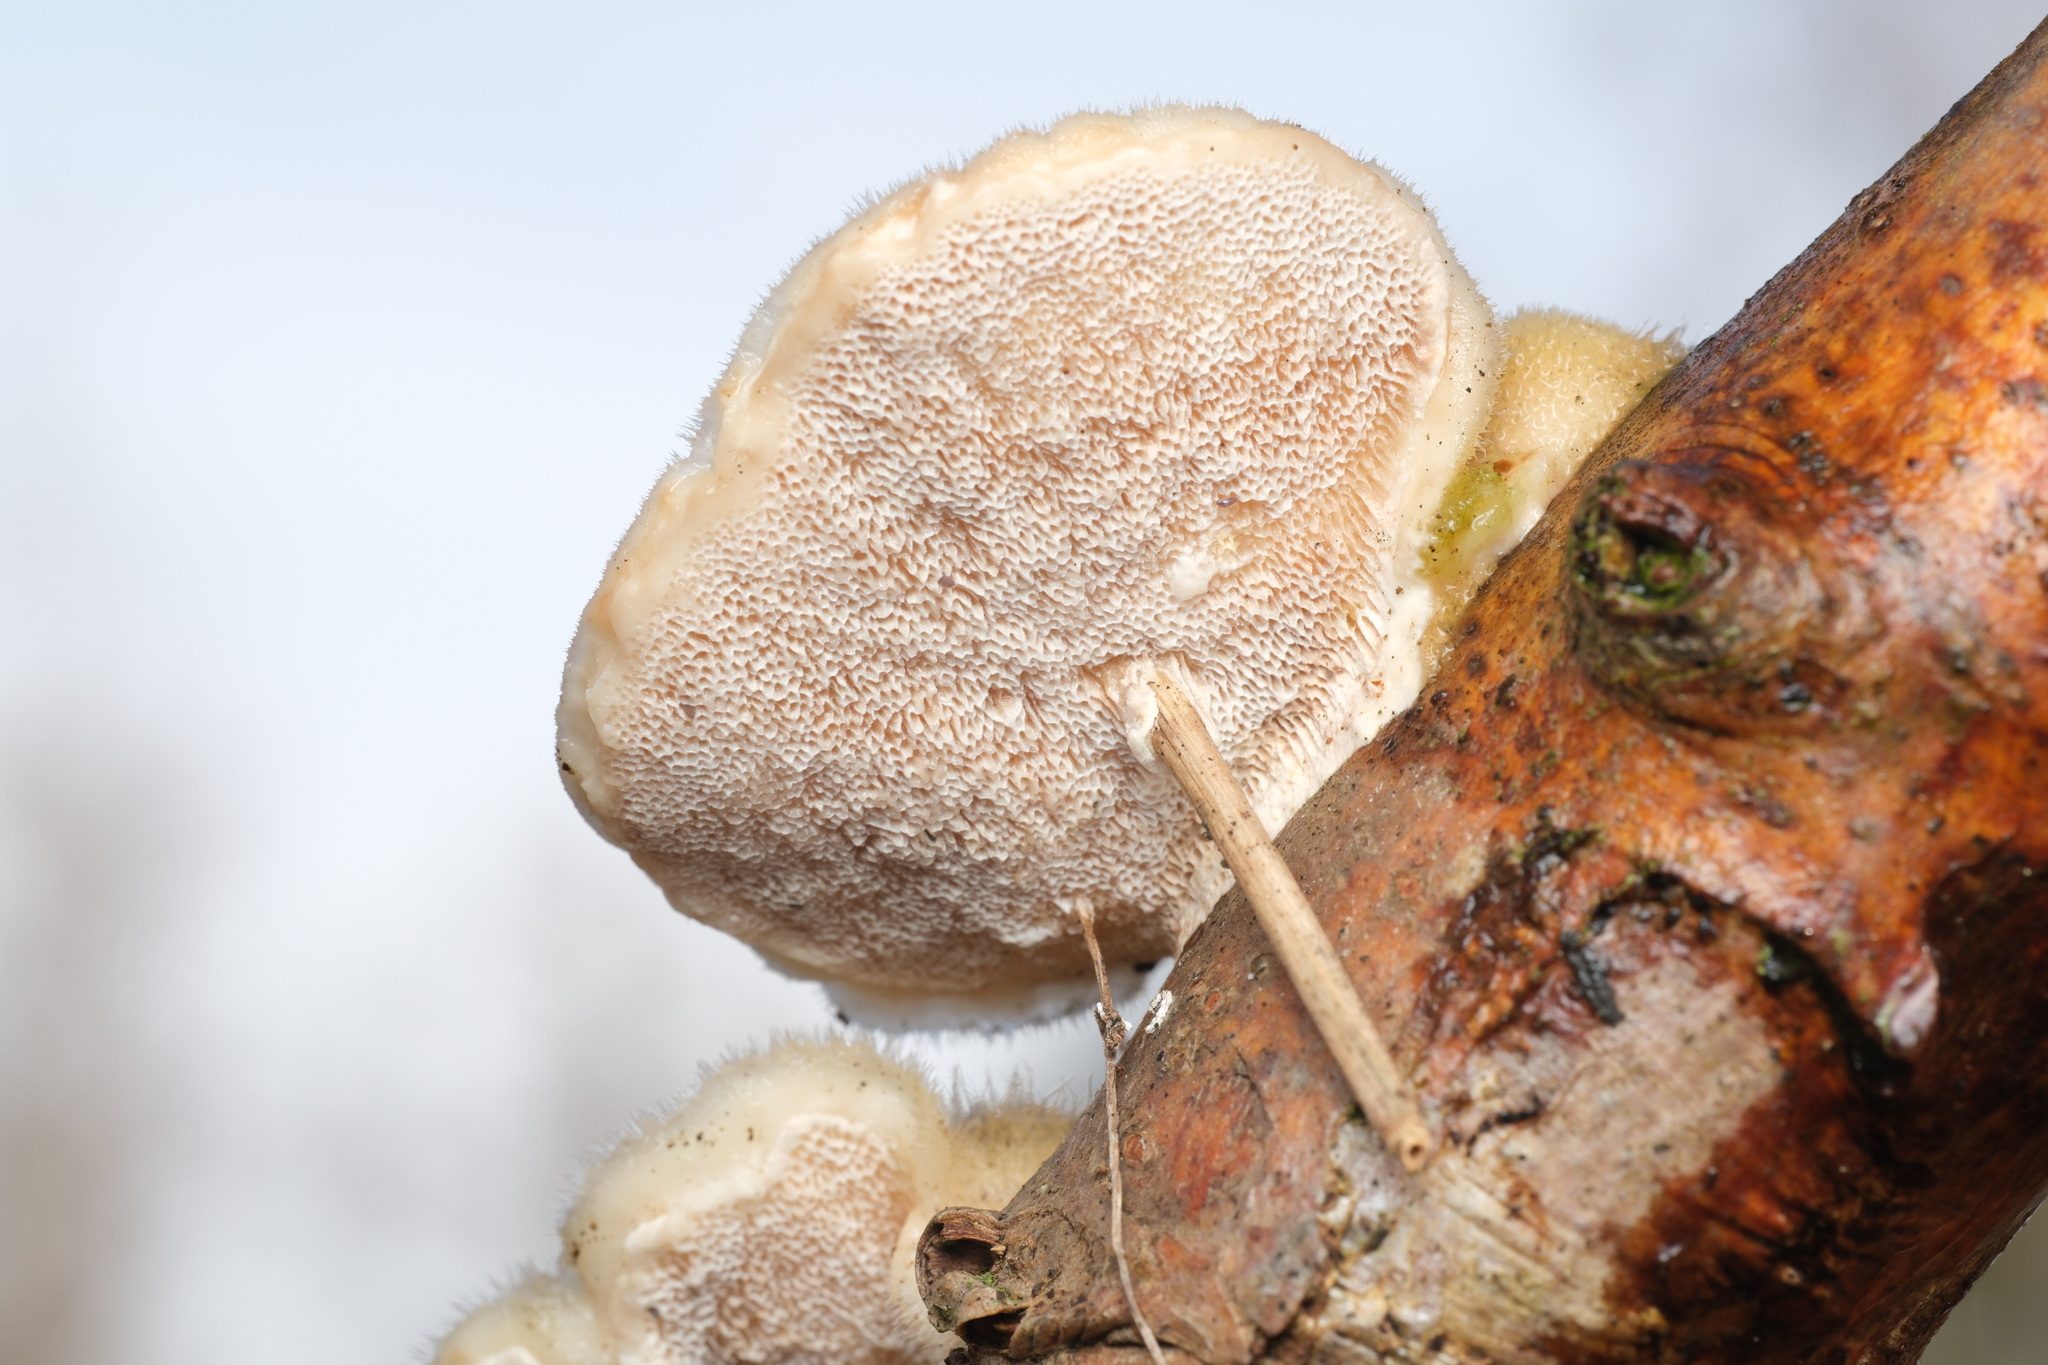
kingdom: Fungi
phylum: Basidiomycota
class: Agaricomycetes
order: Polyporales
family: Polyporaceae
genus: Trametes
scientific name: Trametes hirsuta
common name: Hairy bracket
